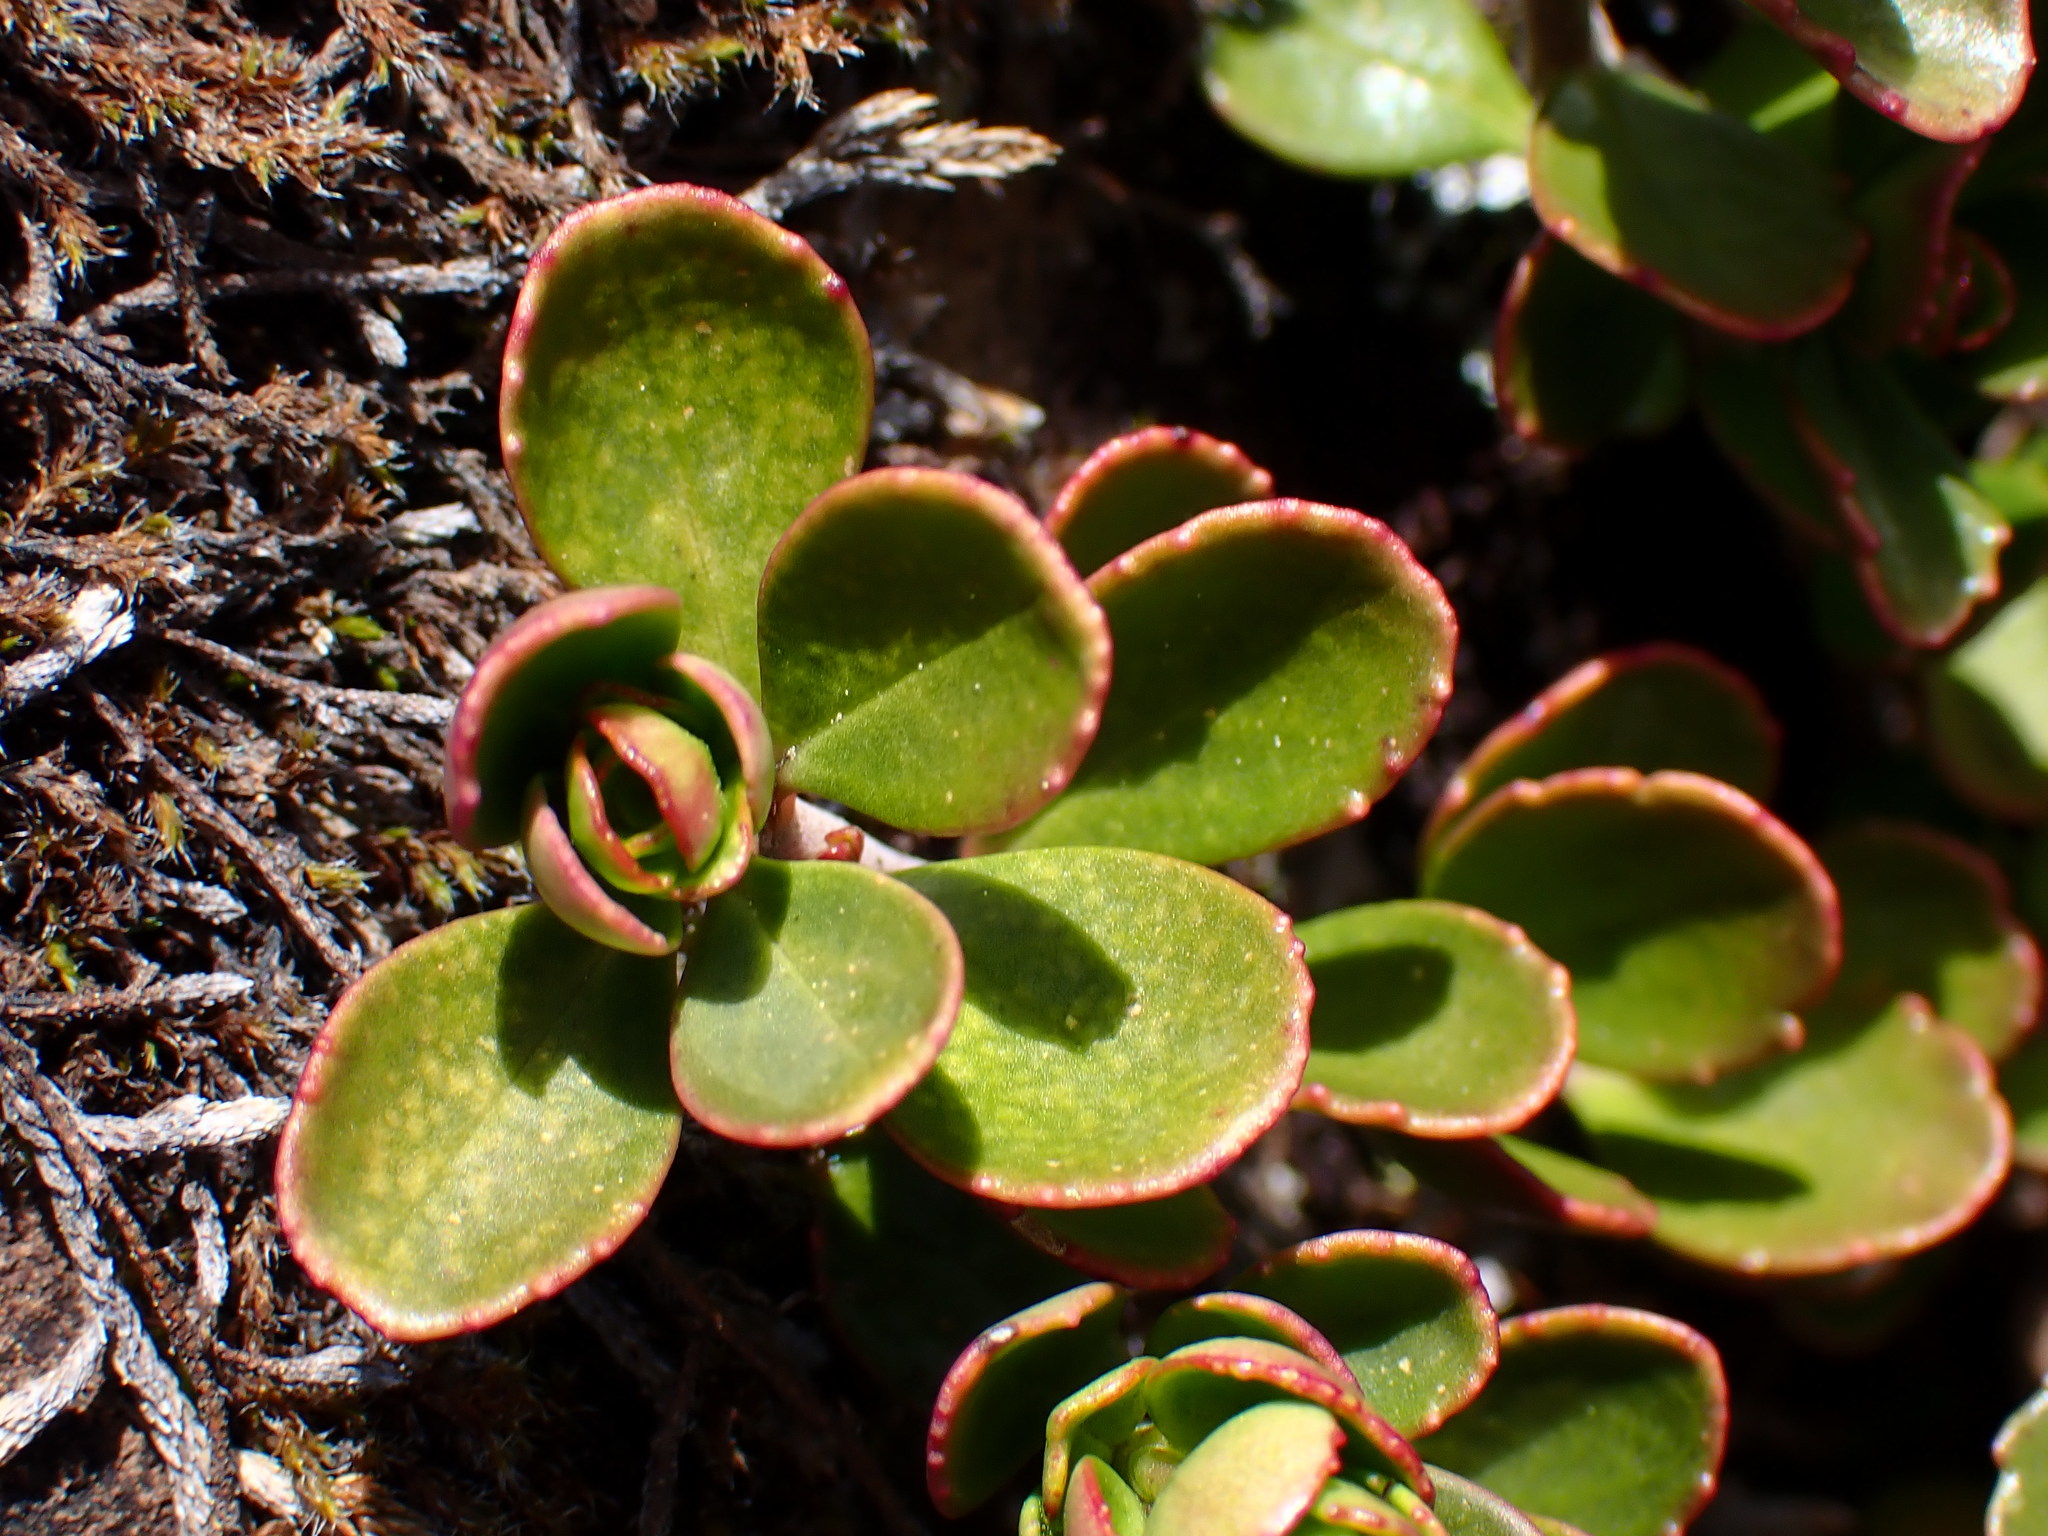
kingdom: Plantae
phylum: Tracheophyta
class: Magnoliopsida
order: Lamiales
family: Plantaginaceae
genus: Penstemon
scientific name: Penstemon davidsonii
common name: Davidson's penstemon
